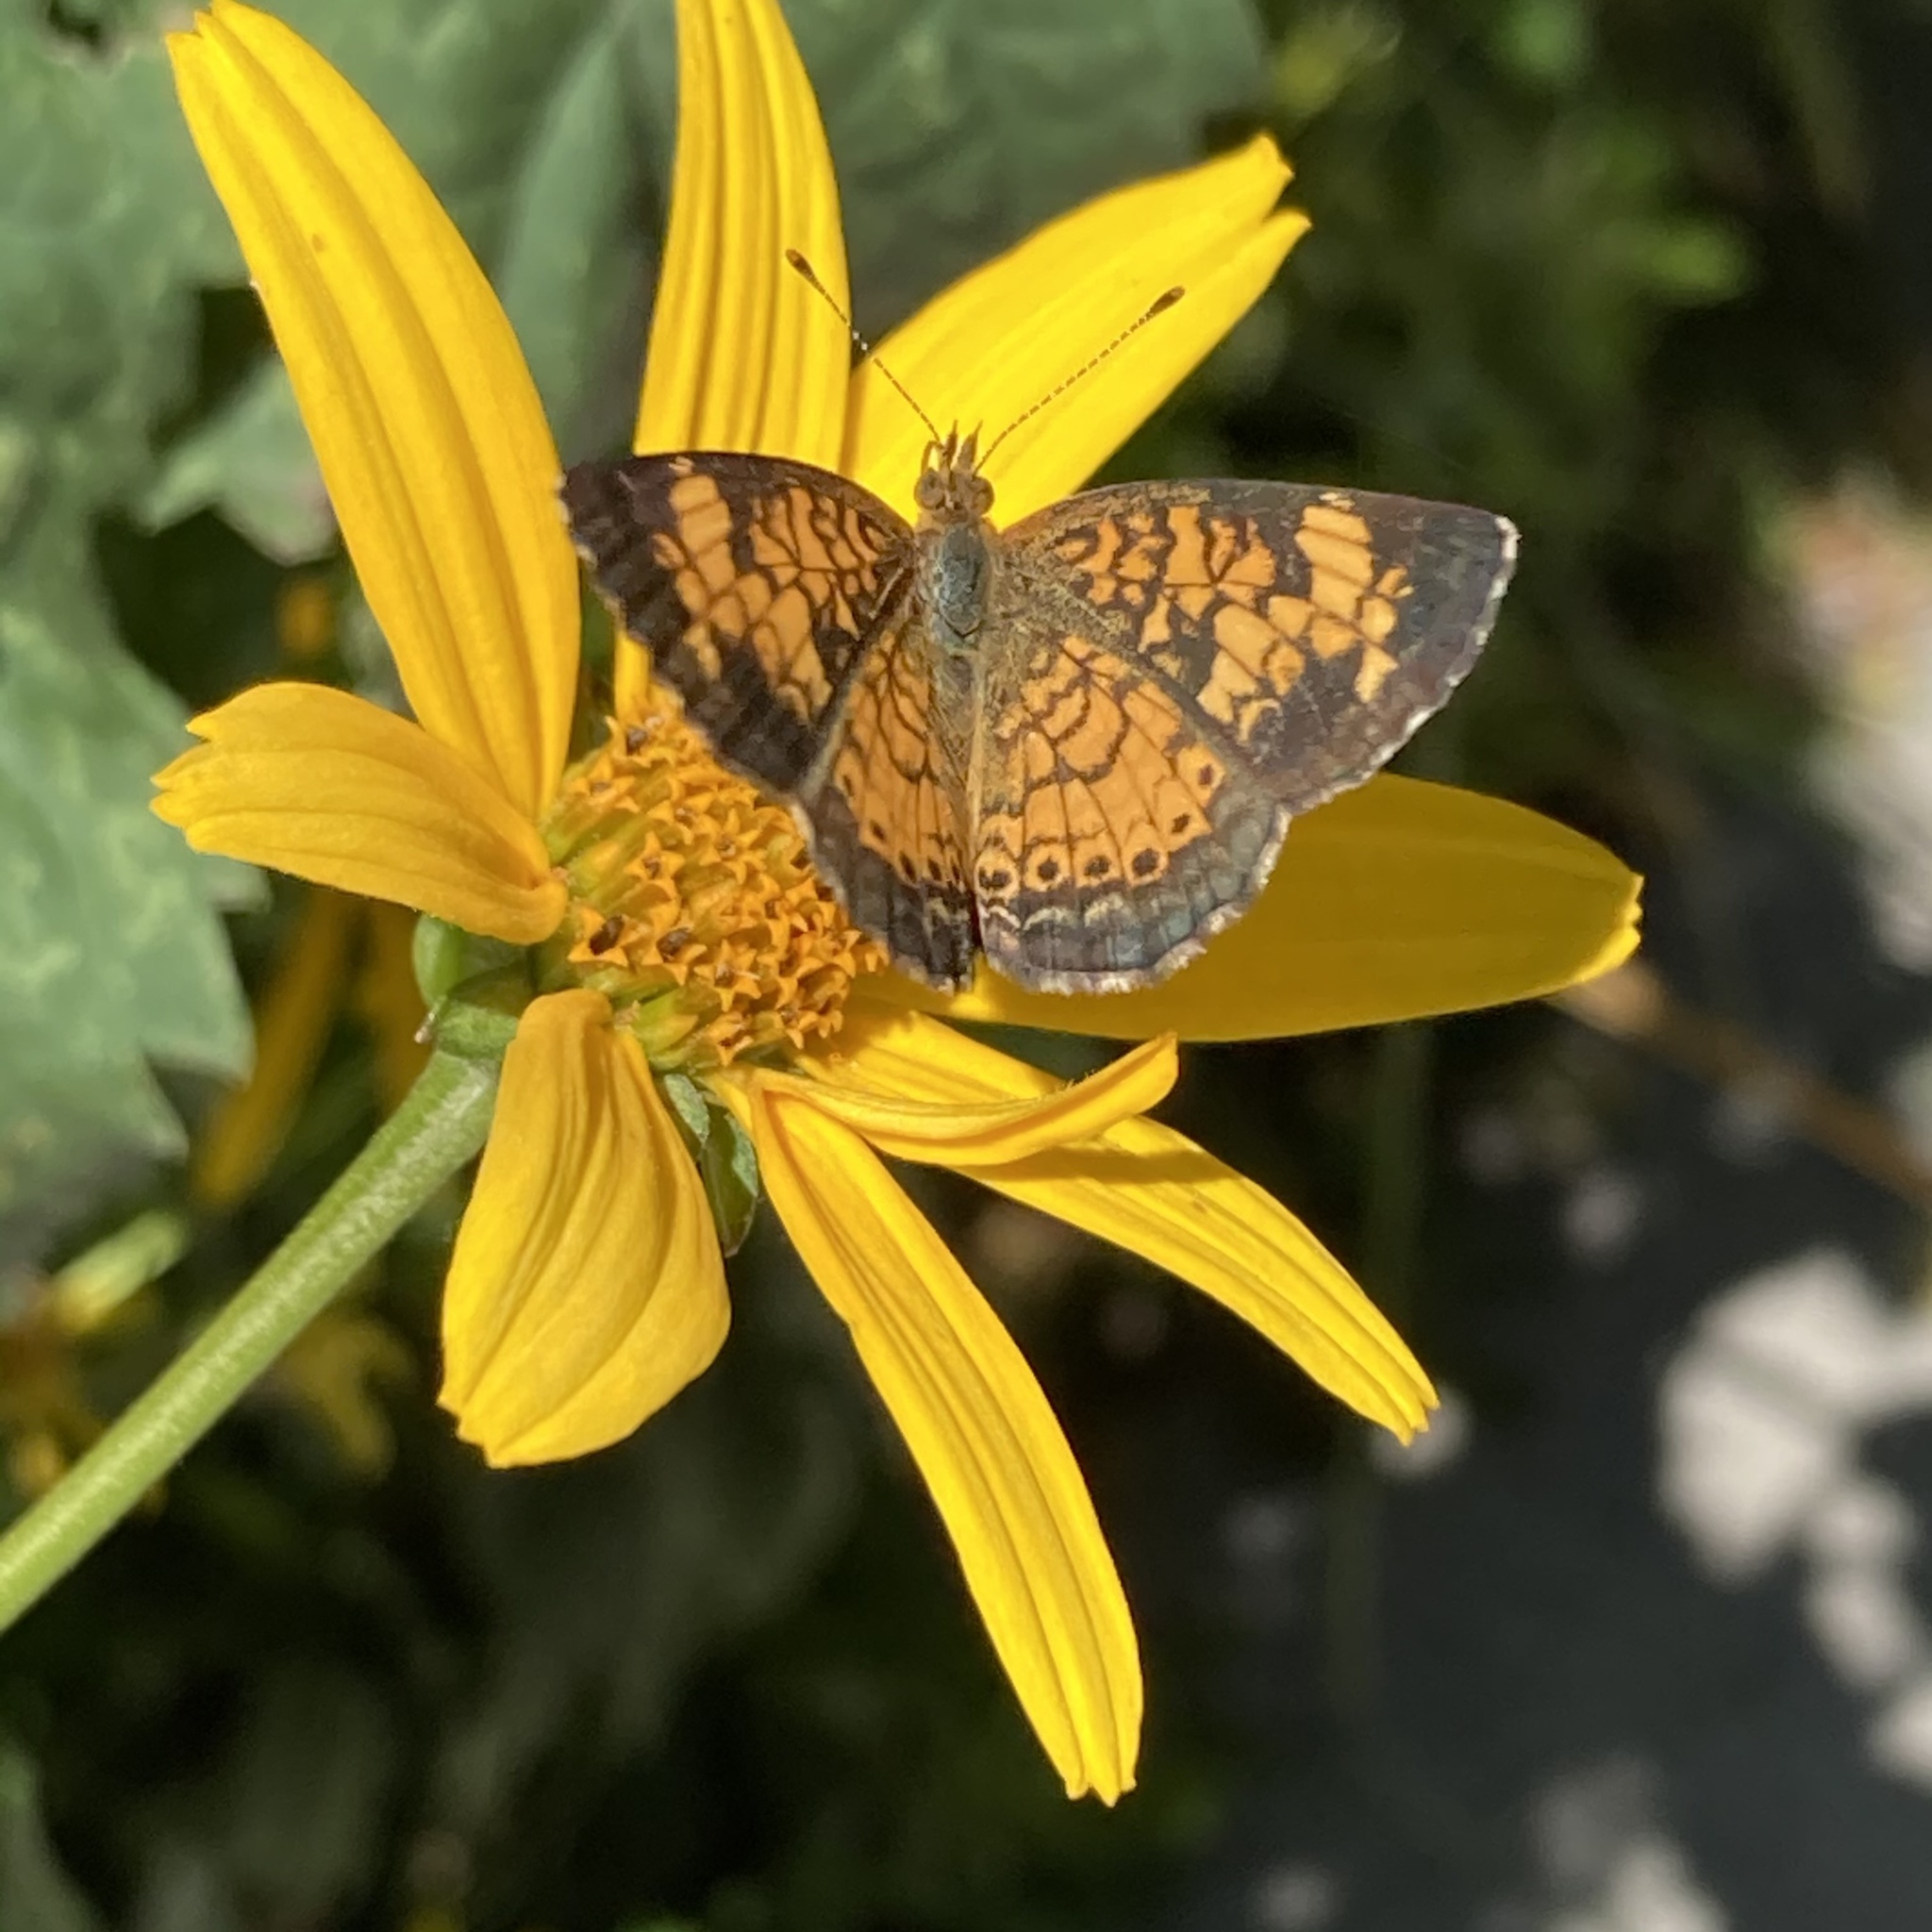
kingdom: Animalia
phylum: Arthropoda
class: Insecta
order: Lepidoptera
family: Nymphalidae
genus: Phyciodes
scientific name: Phyciodes tharos
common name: Pearl crescent
